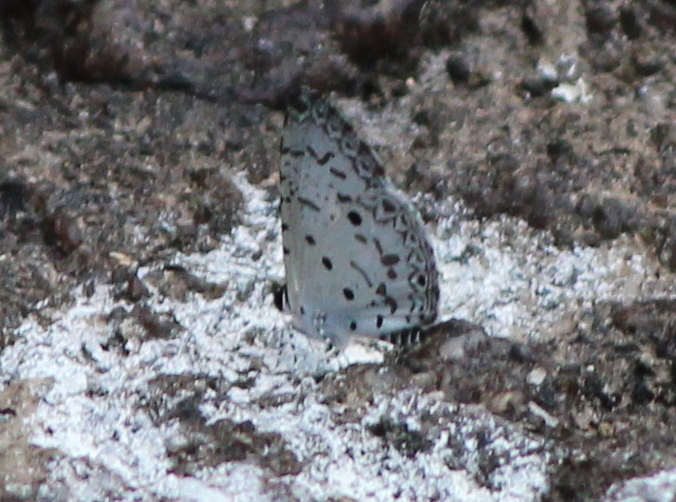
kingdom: Animalia
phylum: Arthropoda
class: Insecta
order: Lepidoptera
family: Lycaenidae
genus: Megisba
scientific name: Megisba malaya
